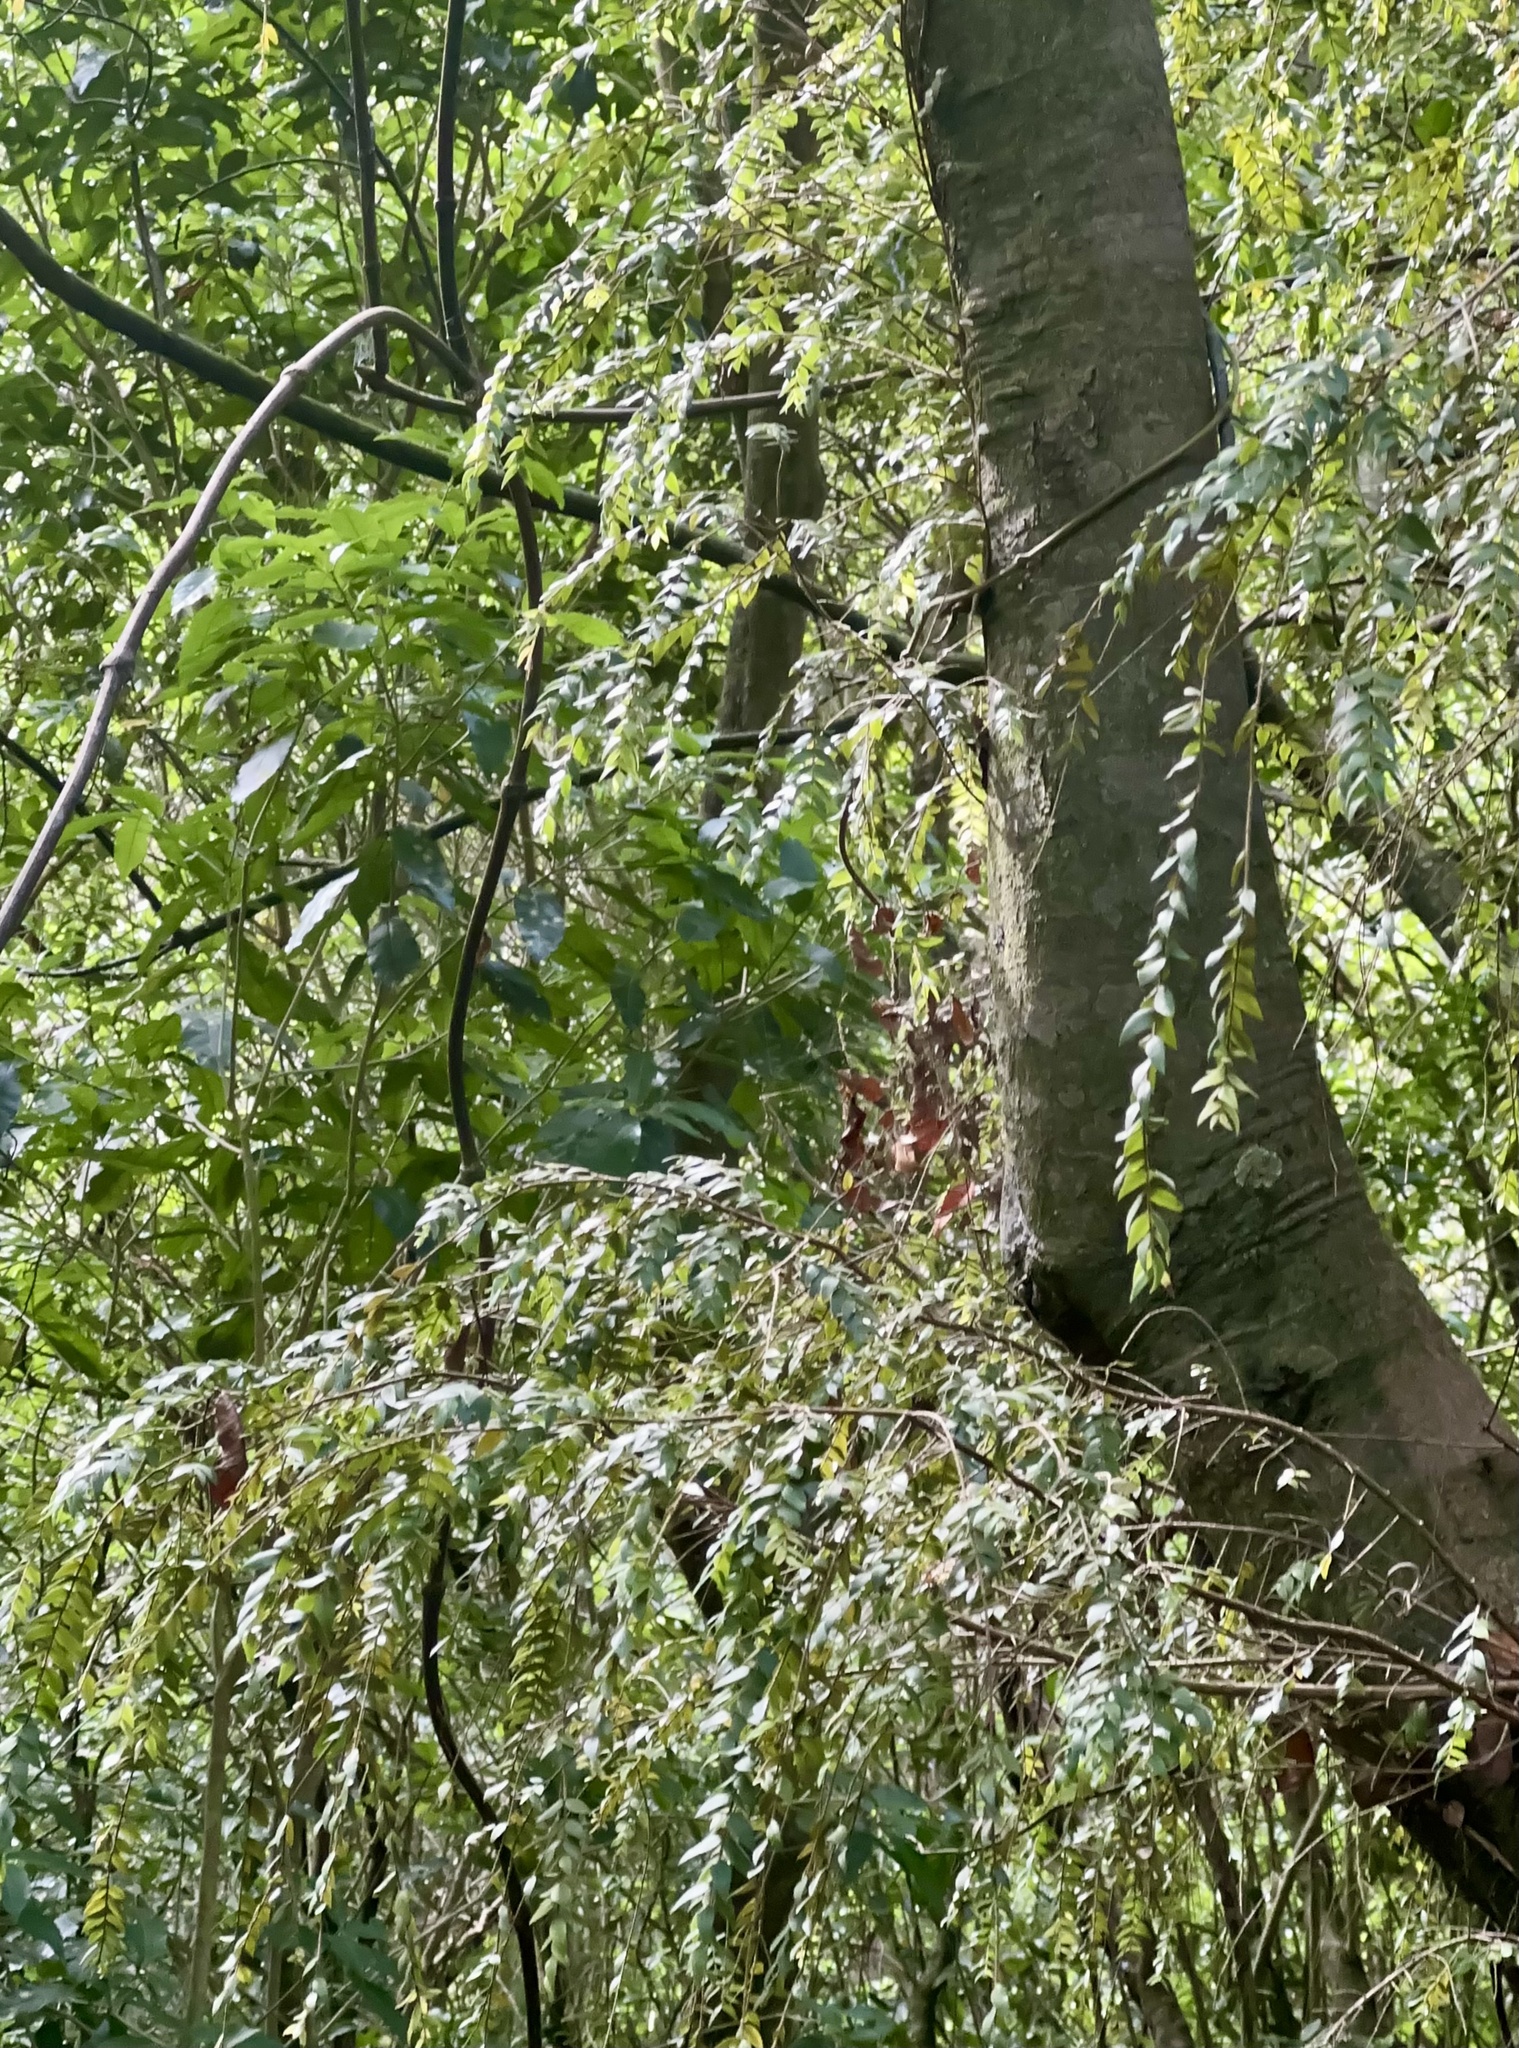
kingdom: Plantae
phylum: Tracheophyta
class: Magnoliopsida
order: Myrtales
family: Myrtaceae
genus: Metrosideros
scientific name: Metrosideros colensoi
